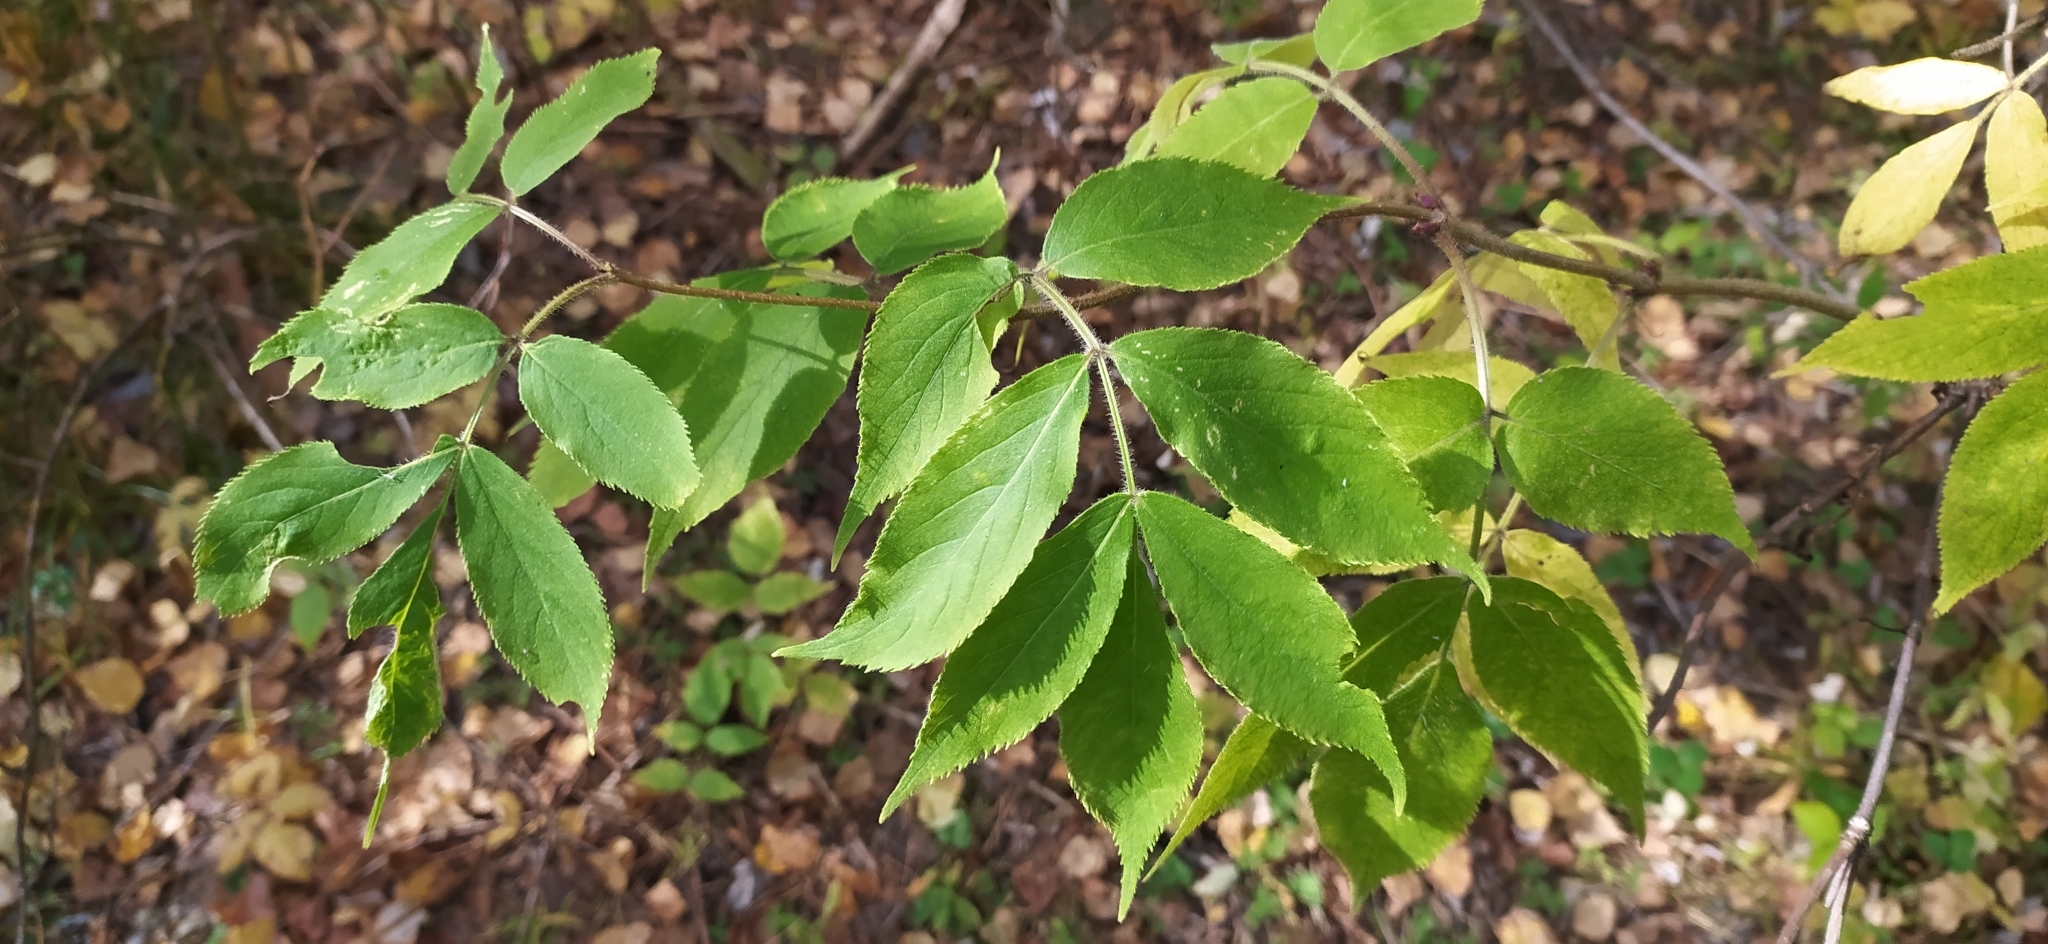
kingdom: Plantae
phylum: Tracheophyta
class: Magnoliopsida
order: Dipsacales
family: Viburnaceae
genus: Sambucus
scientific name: Sambucus sibirica
